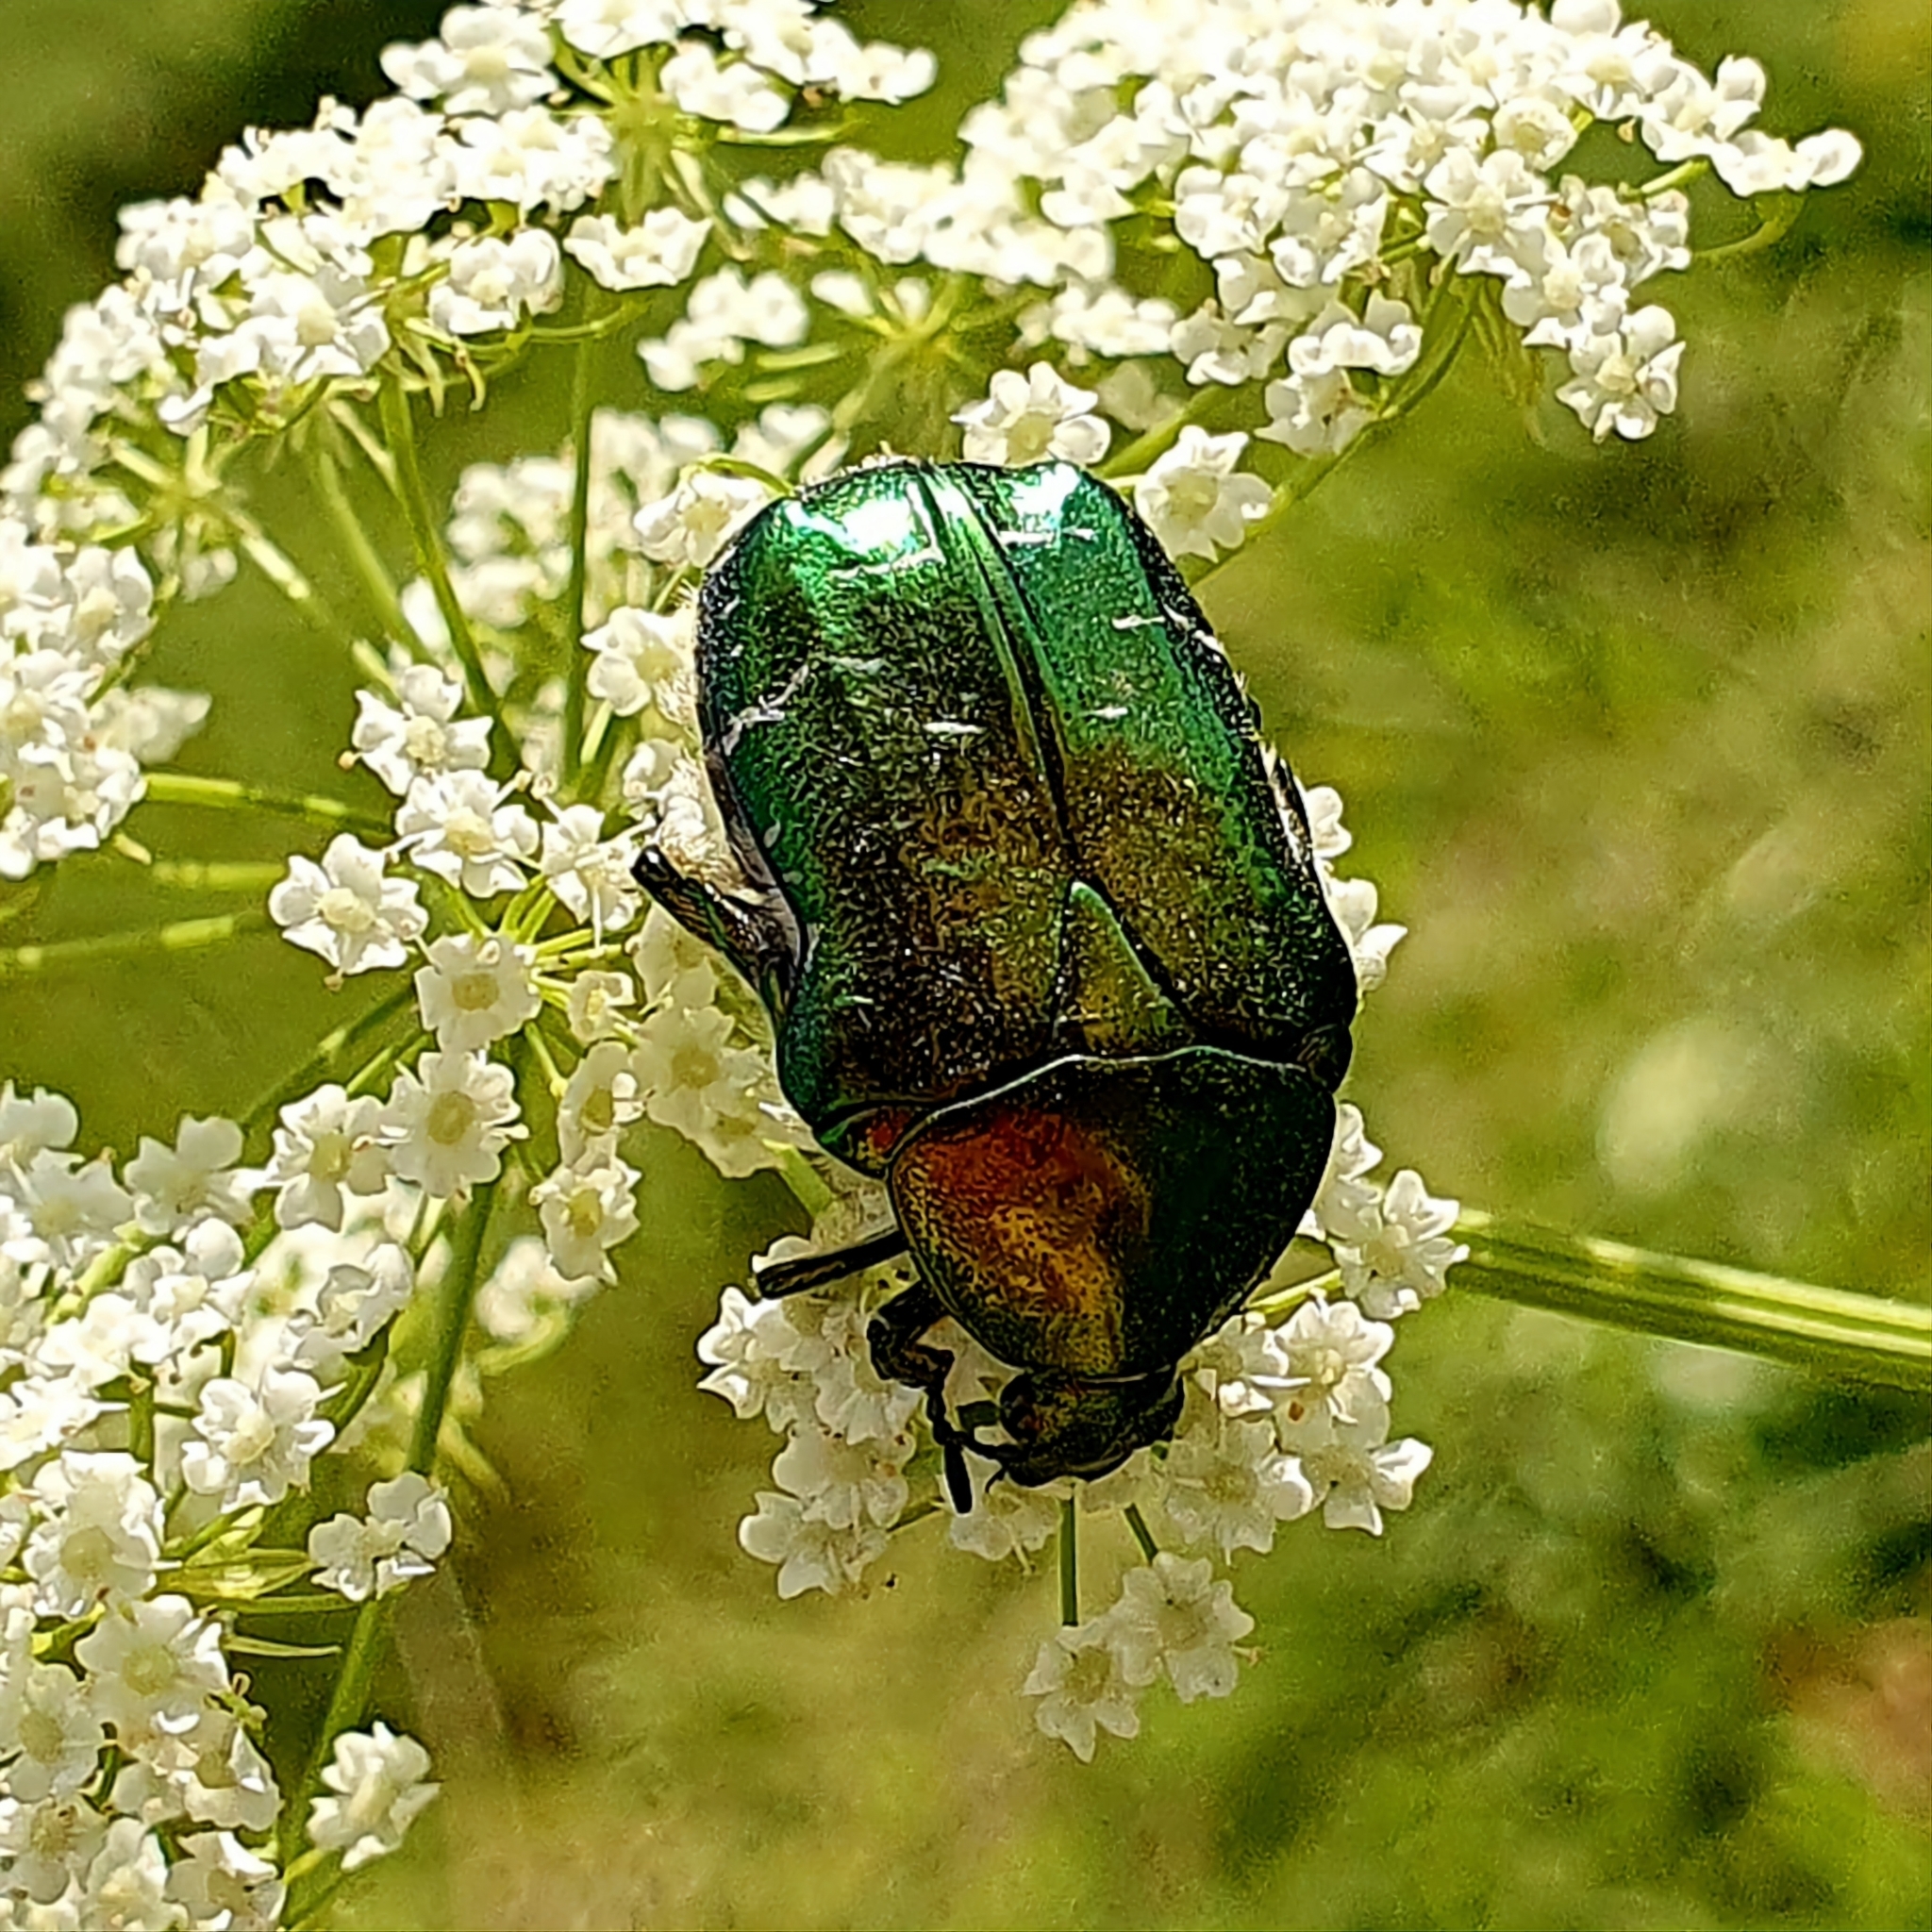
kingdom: Animalia
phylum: Arthropoda
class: Insecta
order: Coleoptera
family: Scarabaeidae
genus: Cetonia
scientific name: Cetonia aurata
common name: Rose chafer
